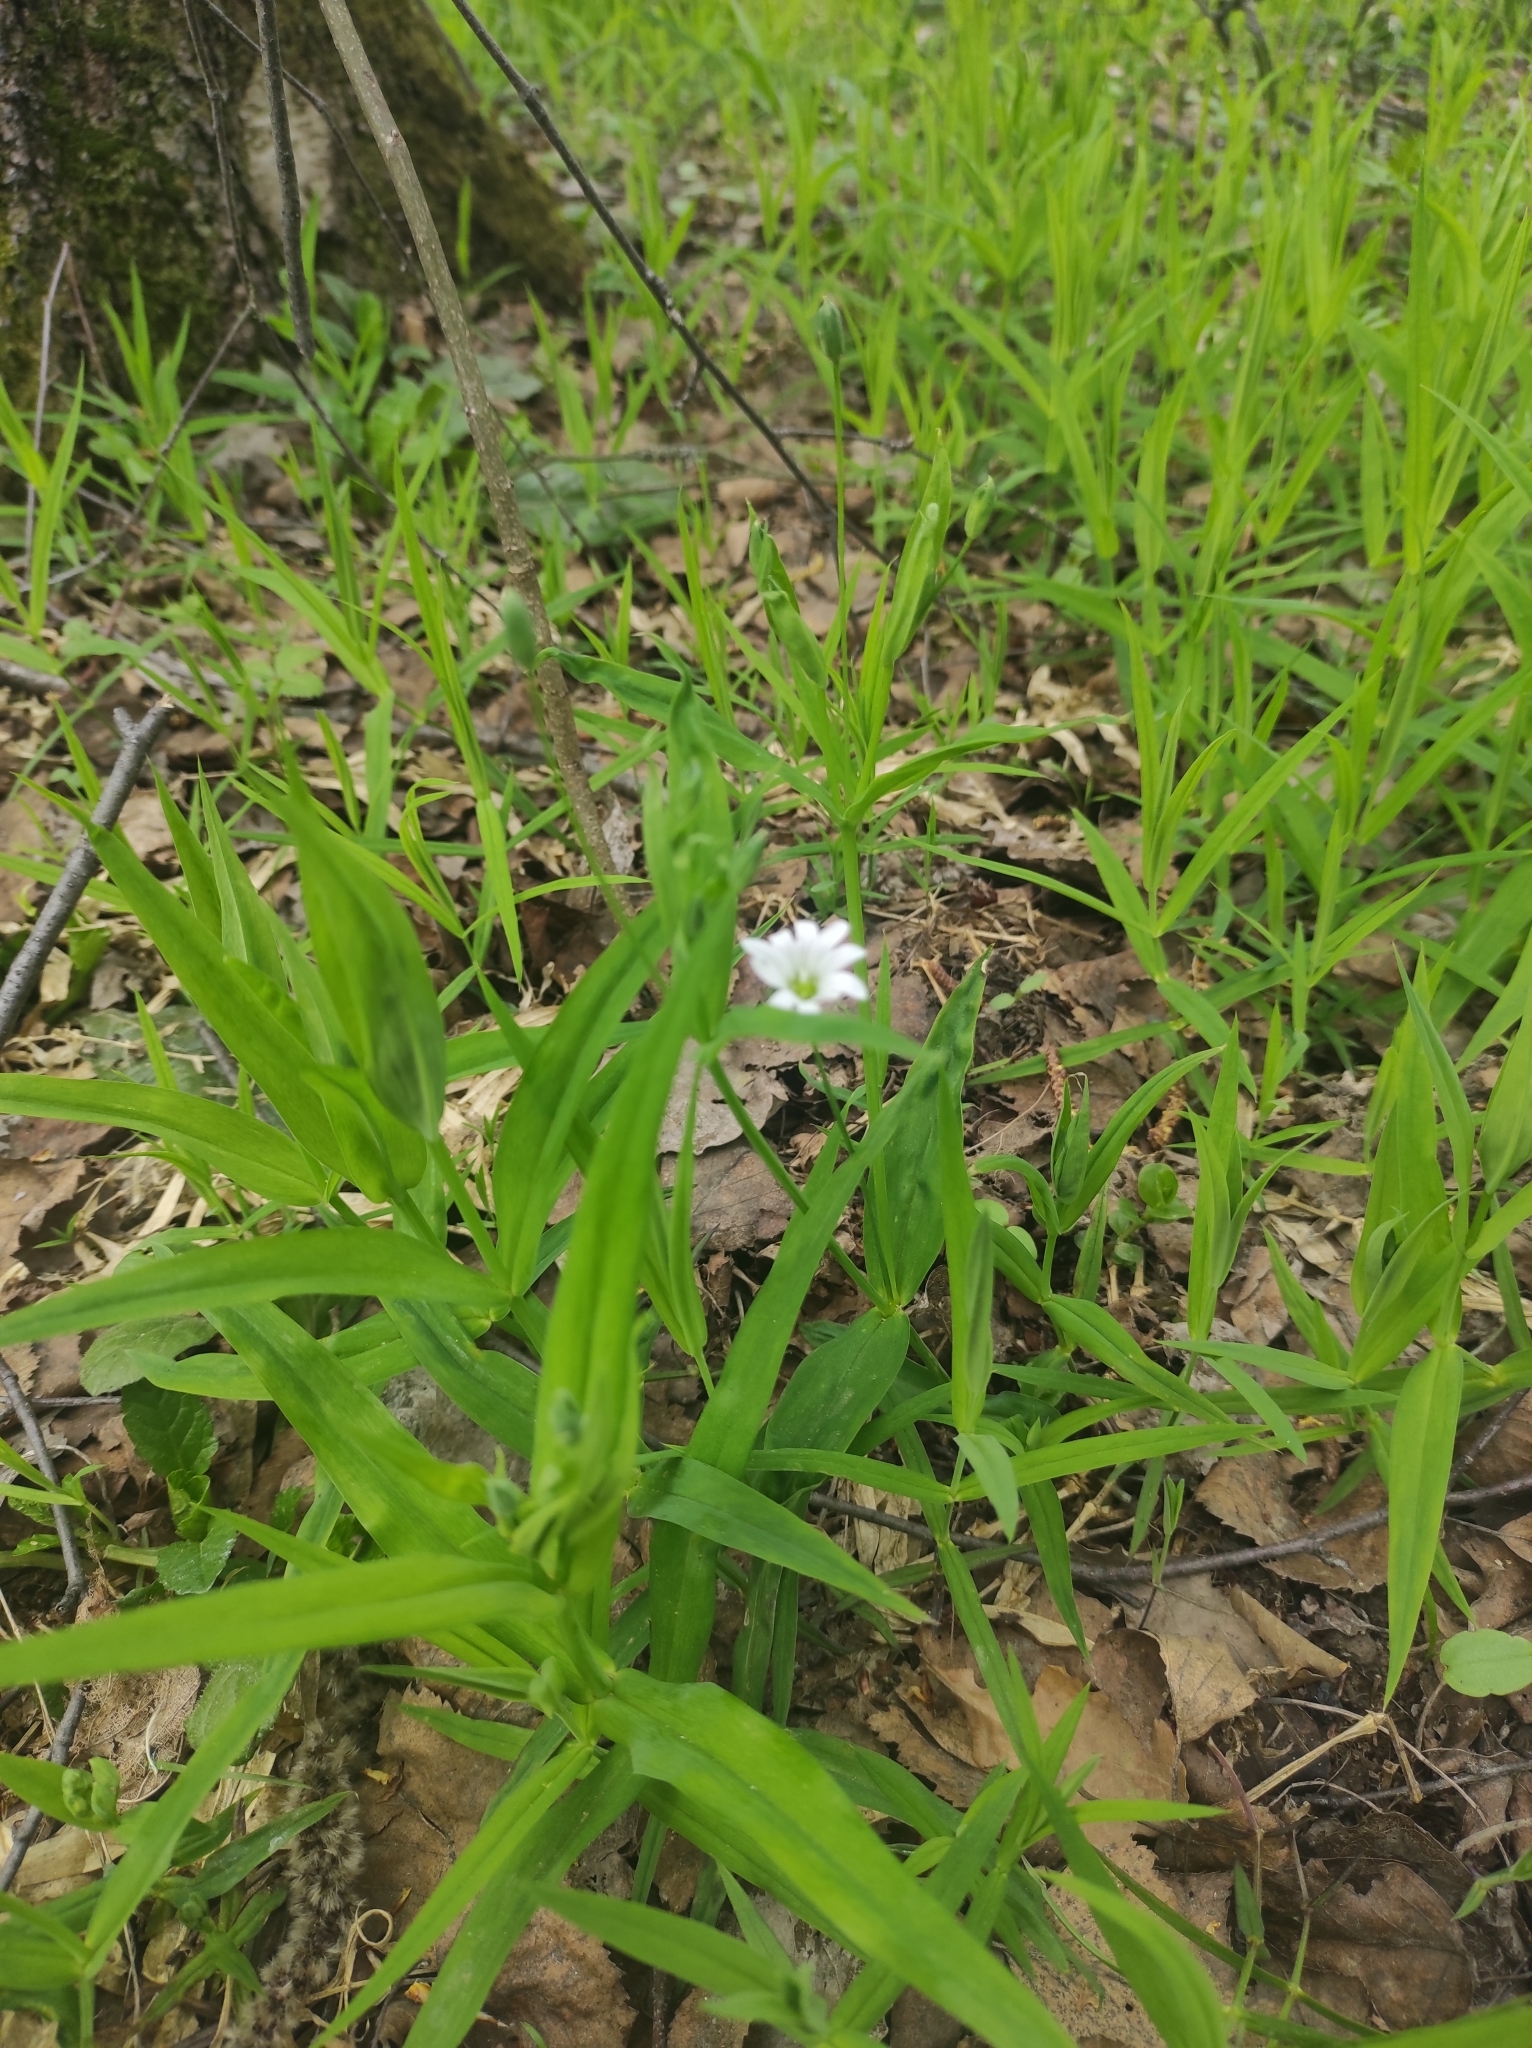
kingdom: Plantae
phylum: Tracheophyta
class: Magnoliopsida
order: Caryophyllales
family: Caryophyllaceae
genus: Rabelera
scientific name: Rabelera holostea
